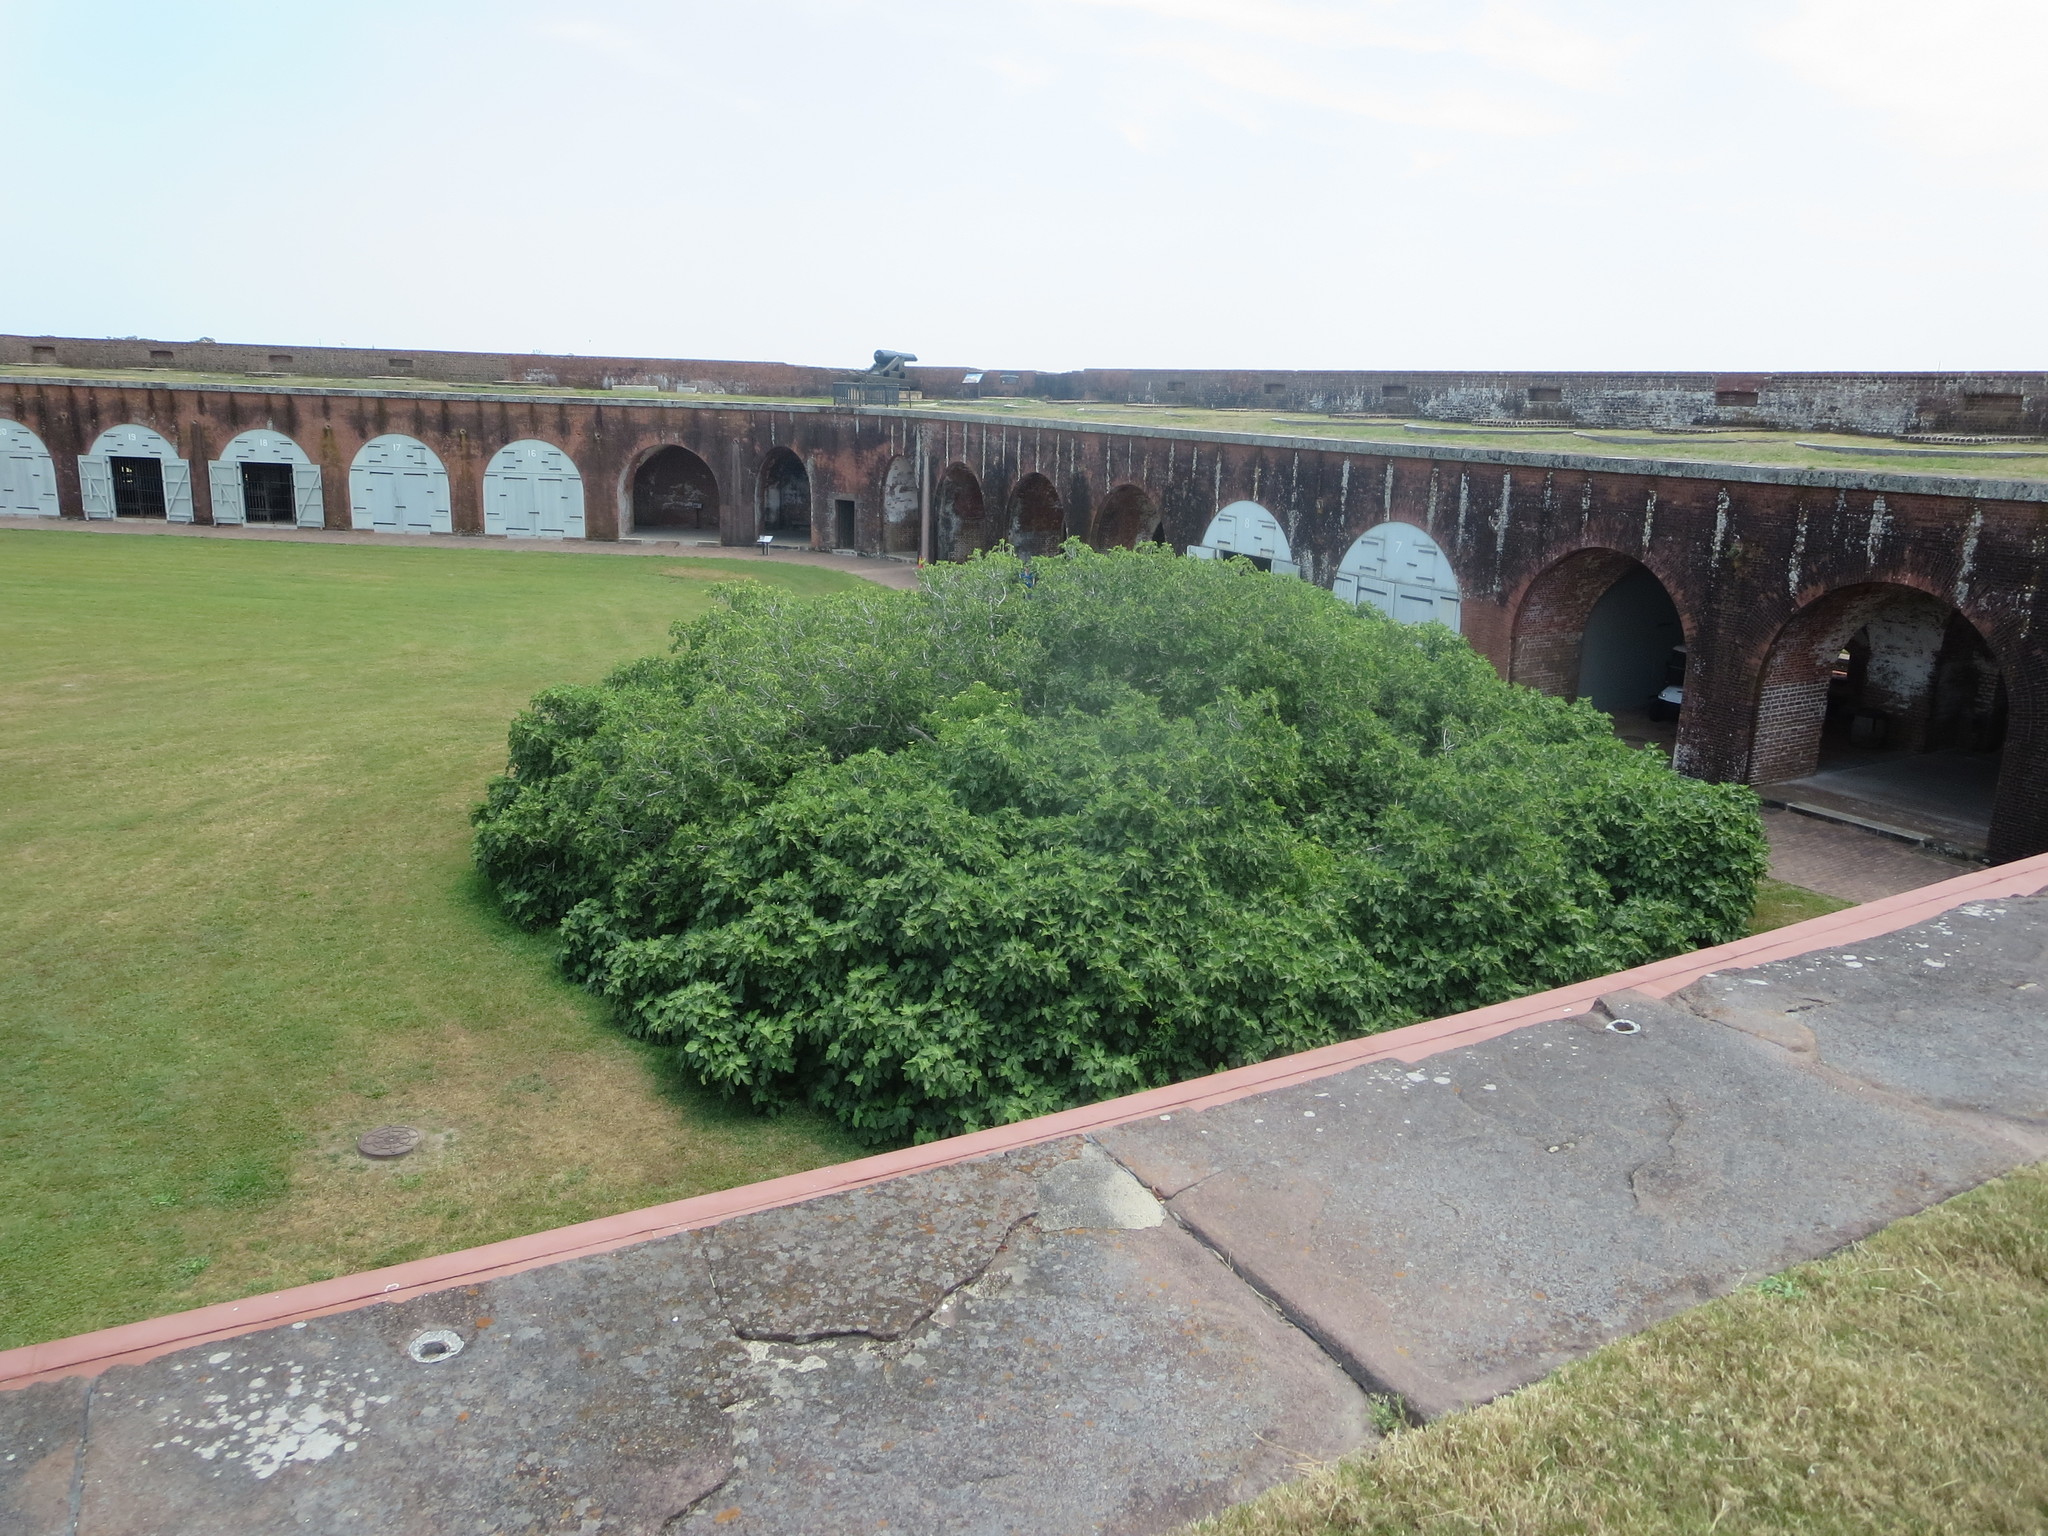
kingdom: Plantae
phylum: Tracheophyta
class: Magnoliopsida
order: Dipsacales
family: Viburnaceae
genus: Sambucus
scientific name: Sambucus canadensis
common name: American elder
